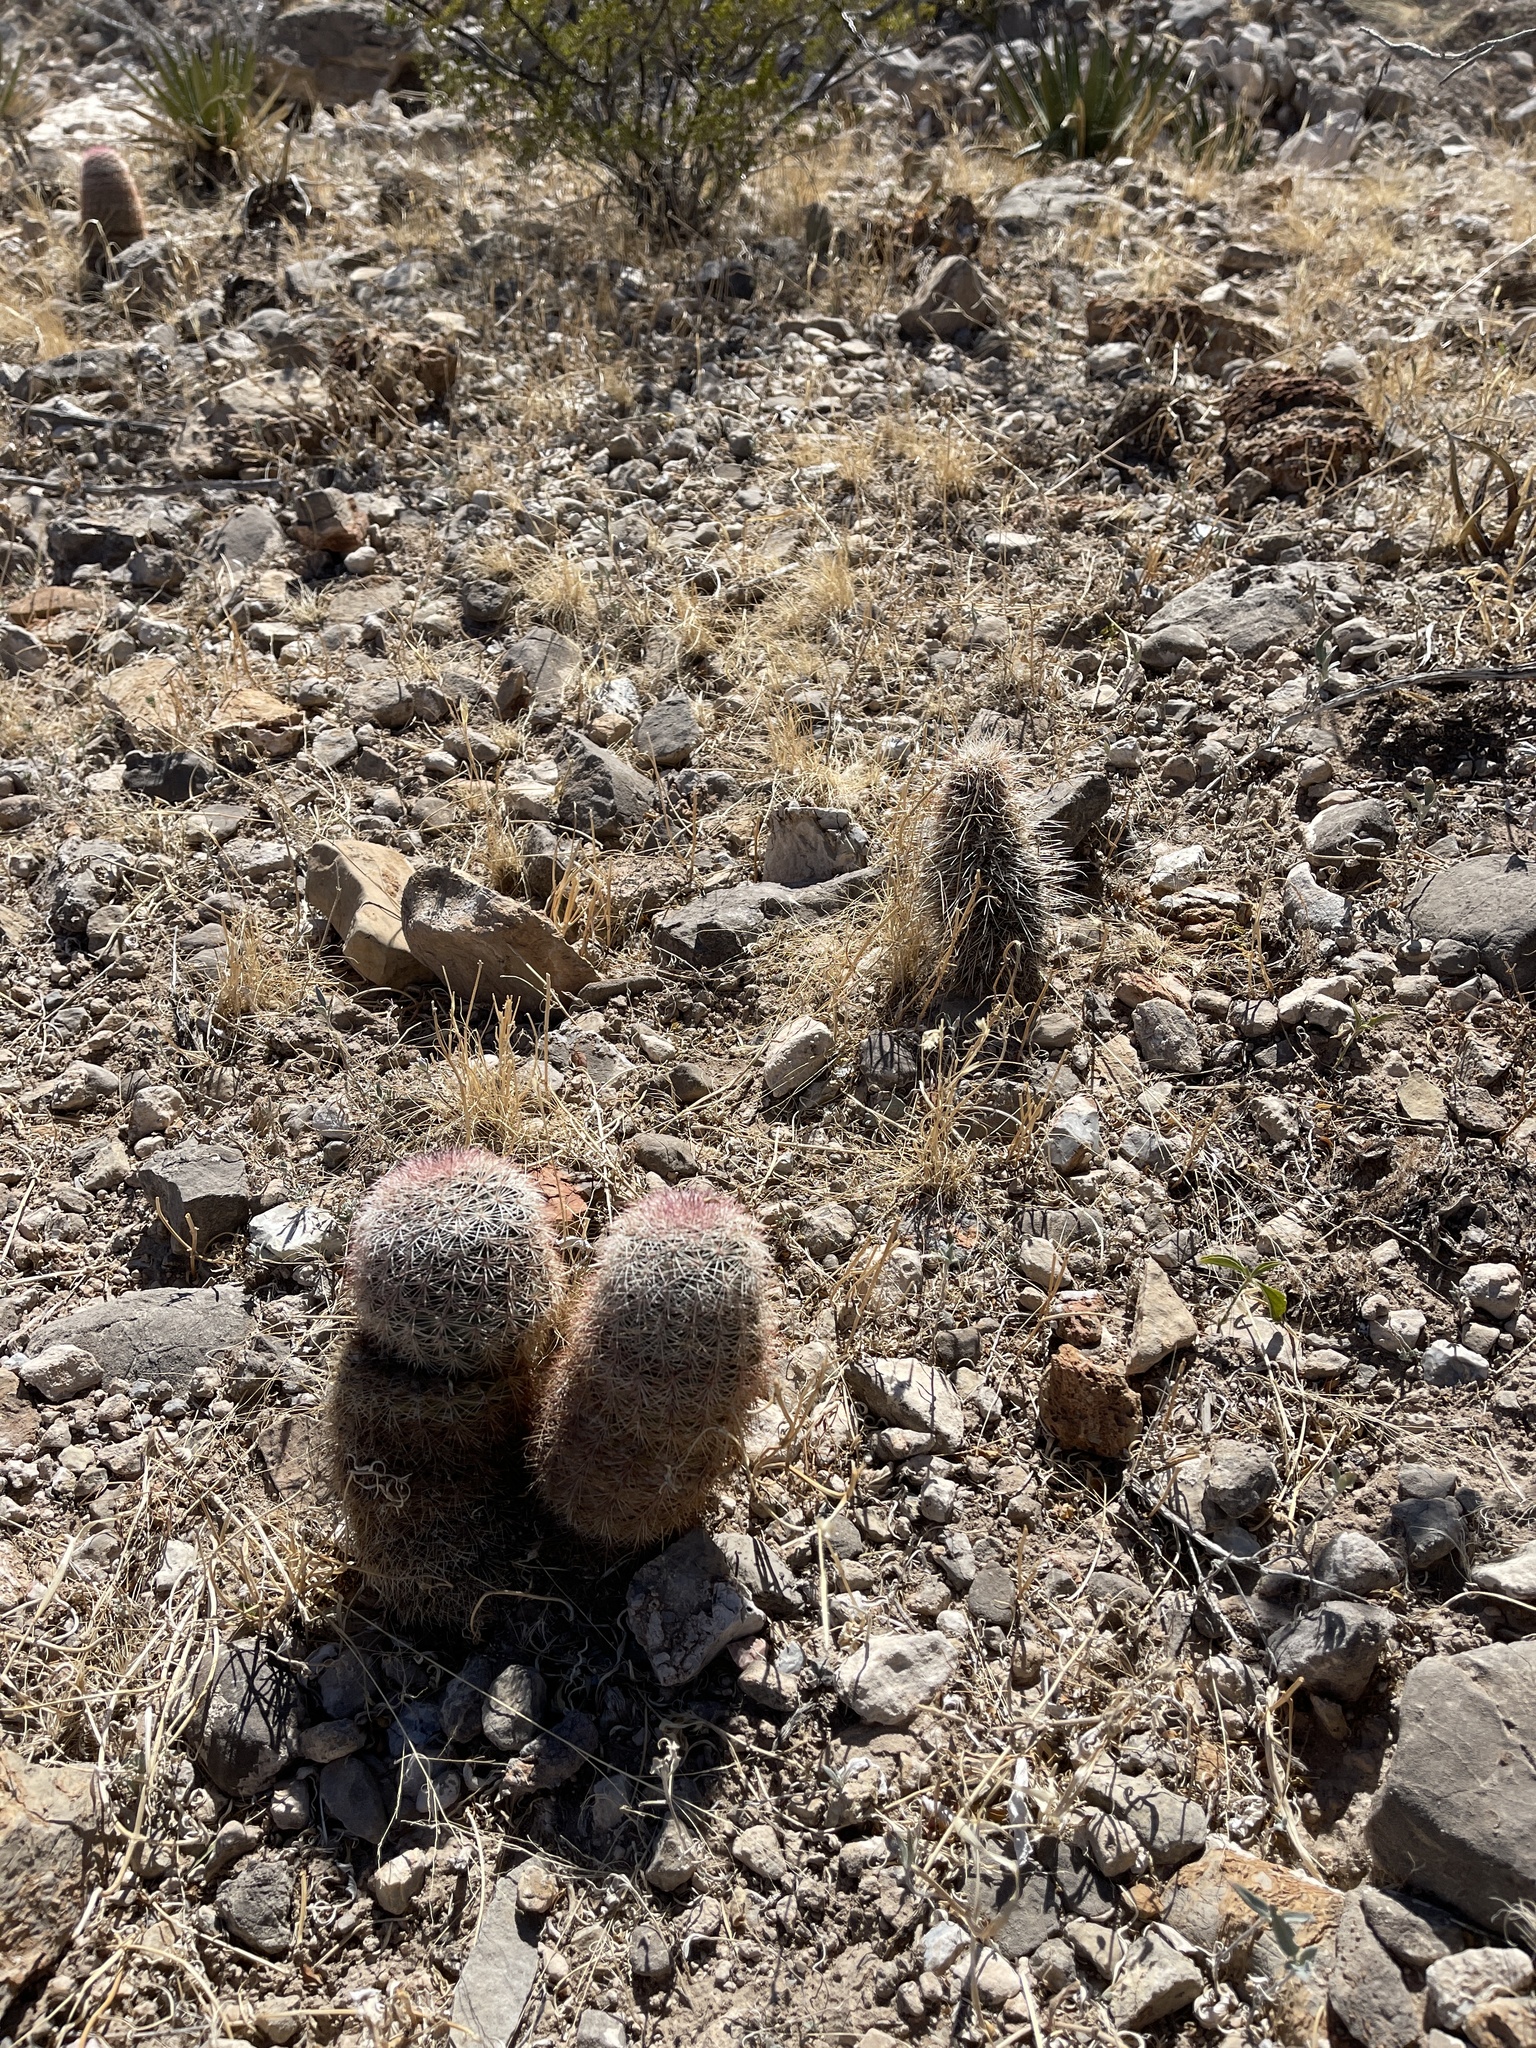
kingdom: Plantae
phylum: Tracheophyta
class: Magnoliopsida
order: Caryophyllales
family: Cactaceae
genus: Echinocereus
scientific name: Echinocereus dasyacanthus
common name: Spiny hedgehog cactus
